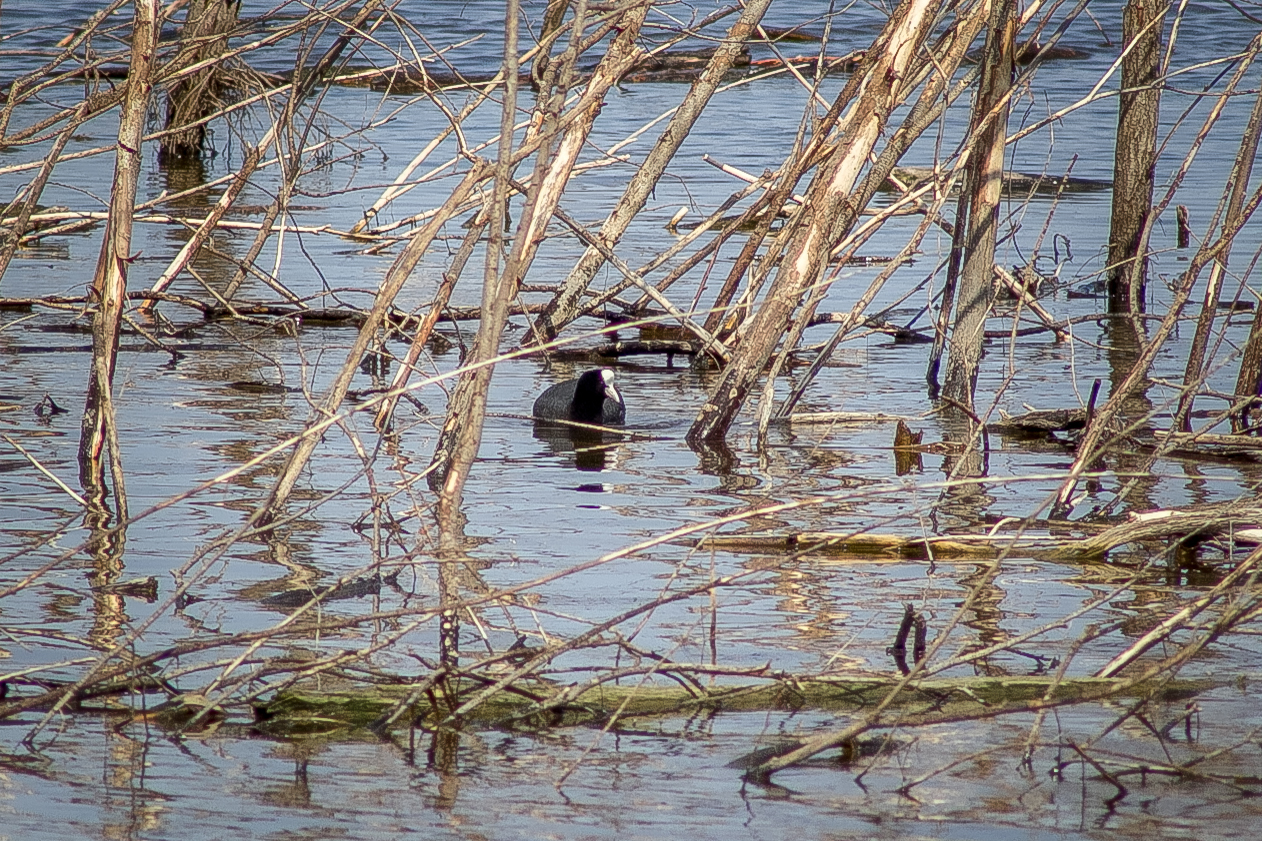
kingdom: Animalia
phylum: Chordata
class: Aves
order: Gruiformes
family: Rallidae
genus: Fulica
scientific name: Fulica atra
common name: Eurasian coot
